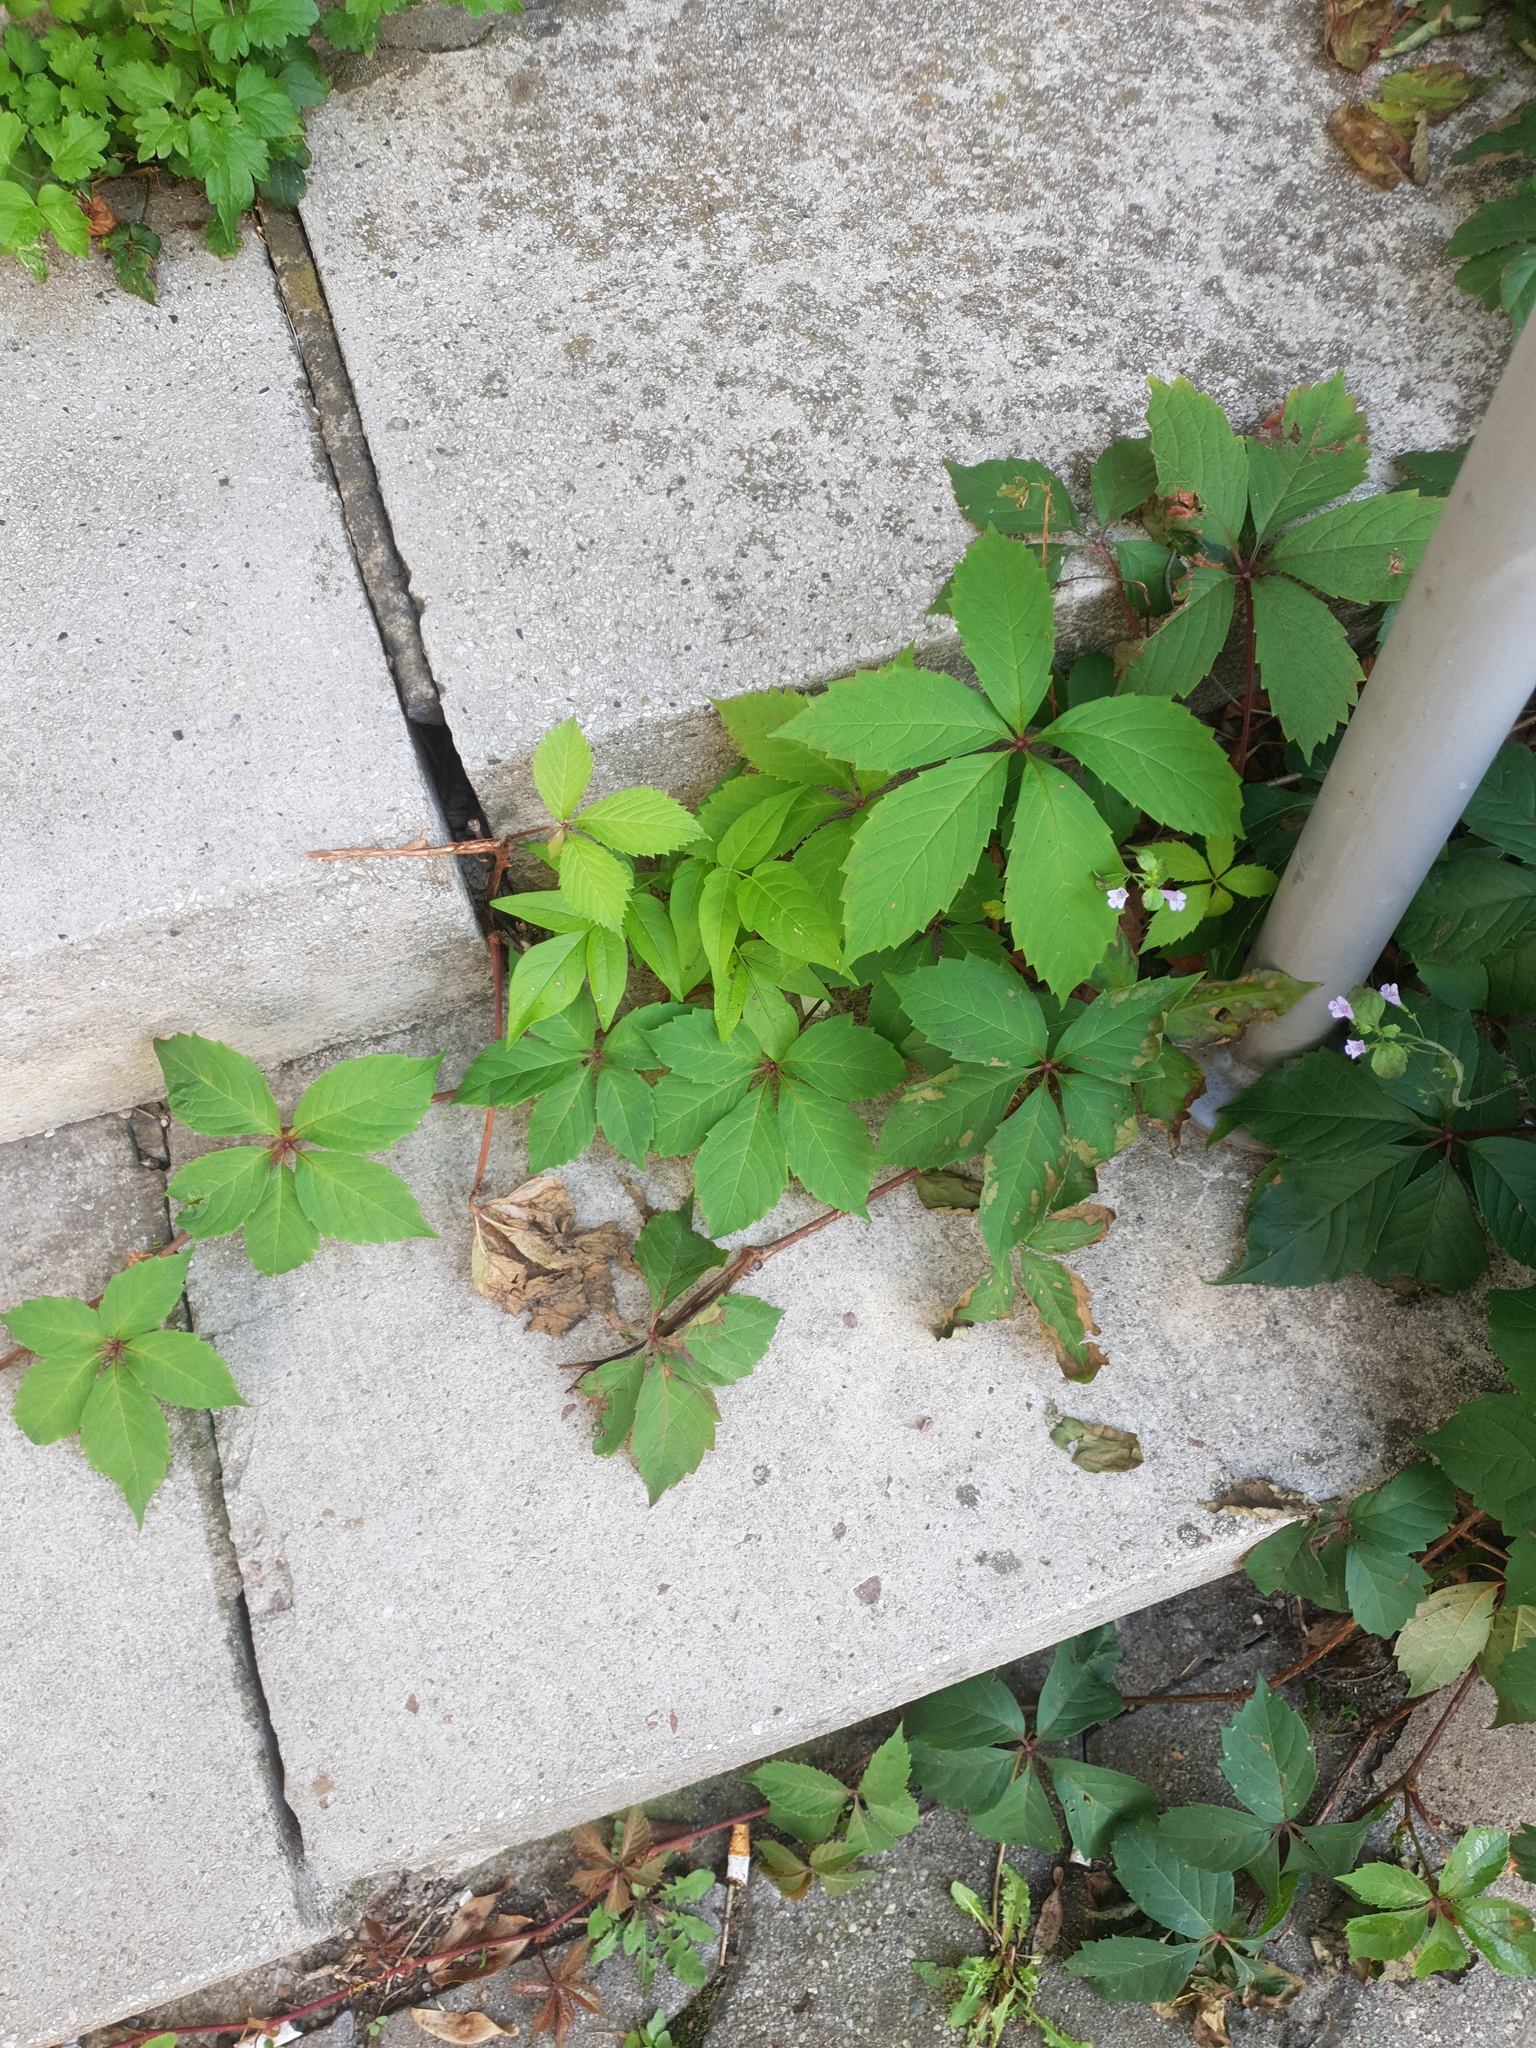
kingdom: Plantae
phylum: Tracheophyta
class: Magnoliopsida
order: Vitales
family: Vitaceae
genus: Parthenocissus
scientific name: Parthenocissus inserta
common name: False virginia-creeper
